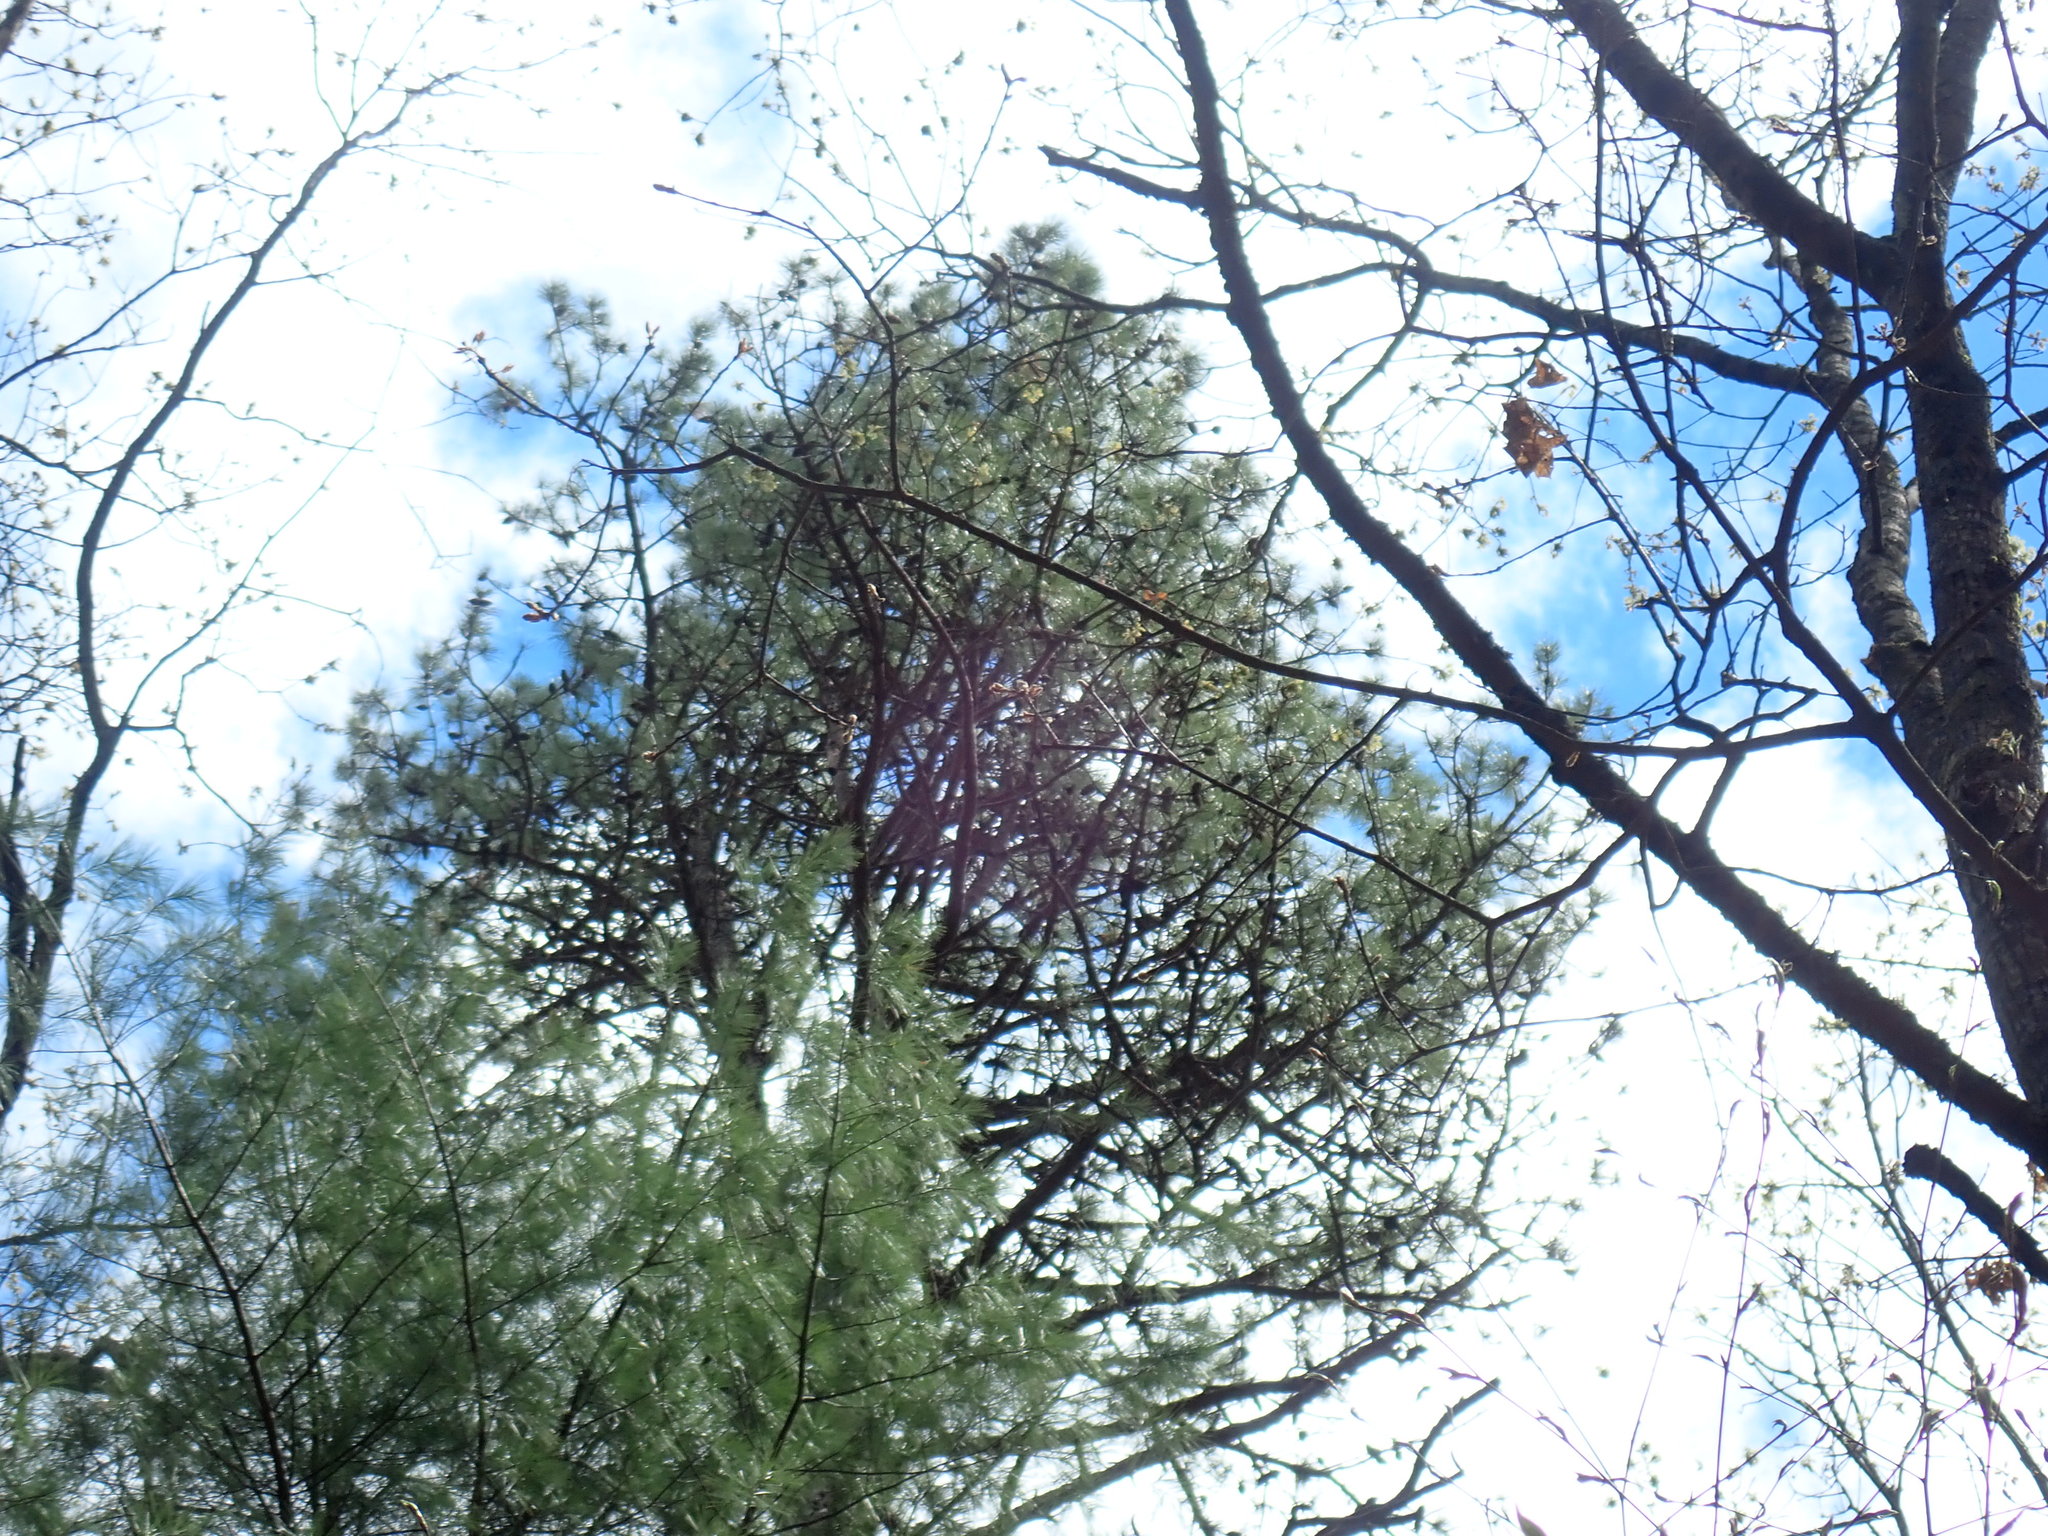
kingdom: Plantae
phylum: Tracheophyta
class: Pinopsida
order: Pinales
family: Pinaceae
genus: Pinus
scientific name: Pinus rigida
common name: Pitch pine
